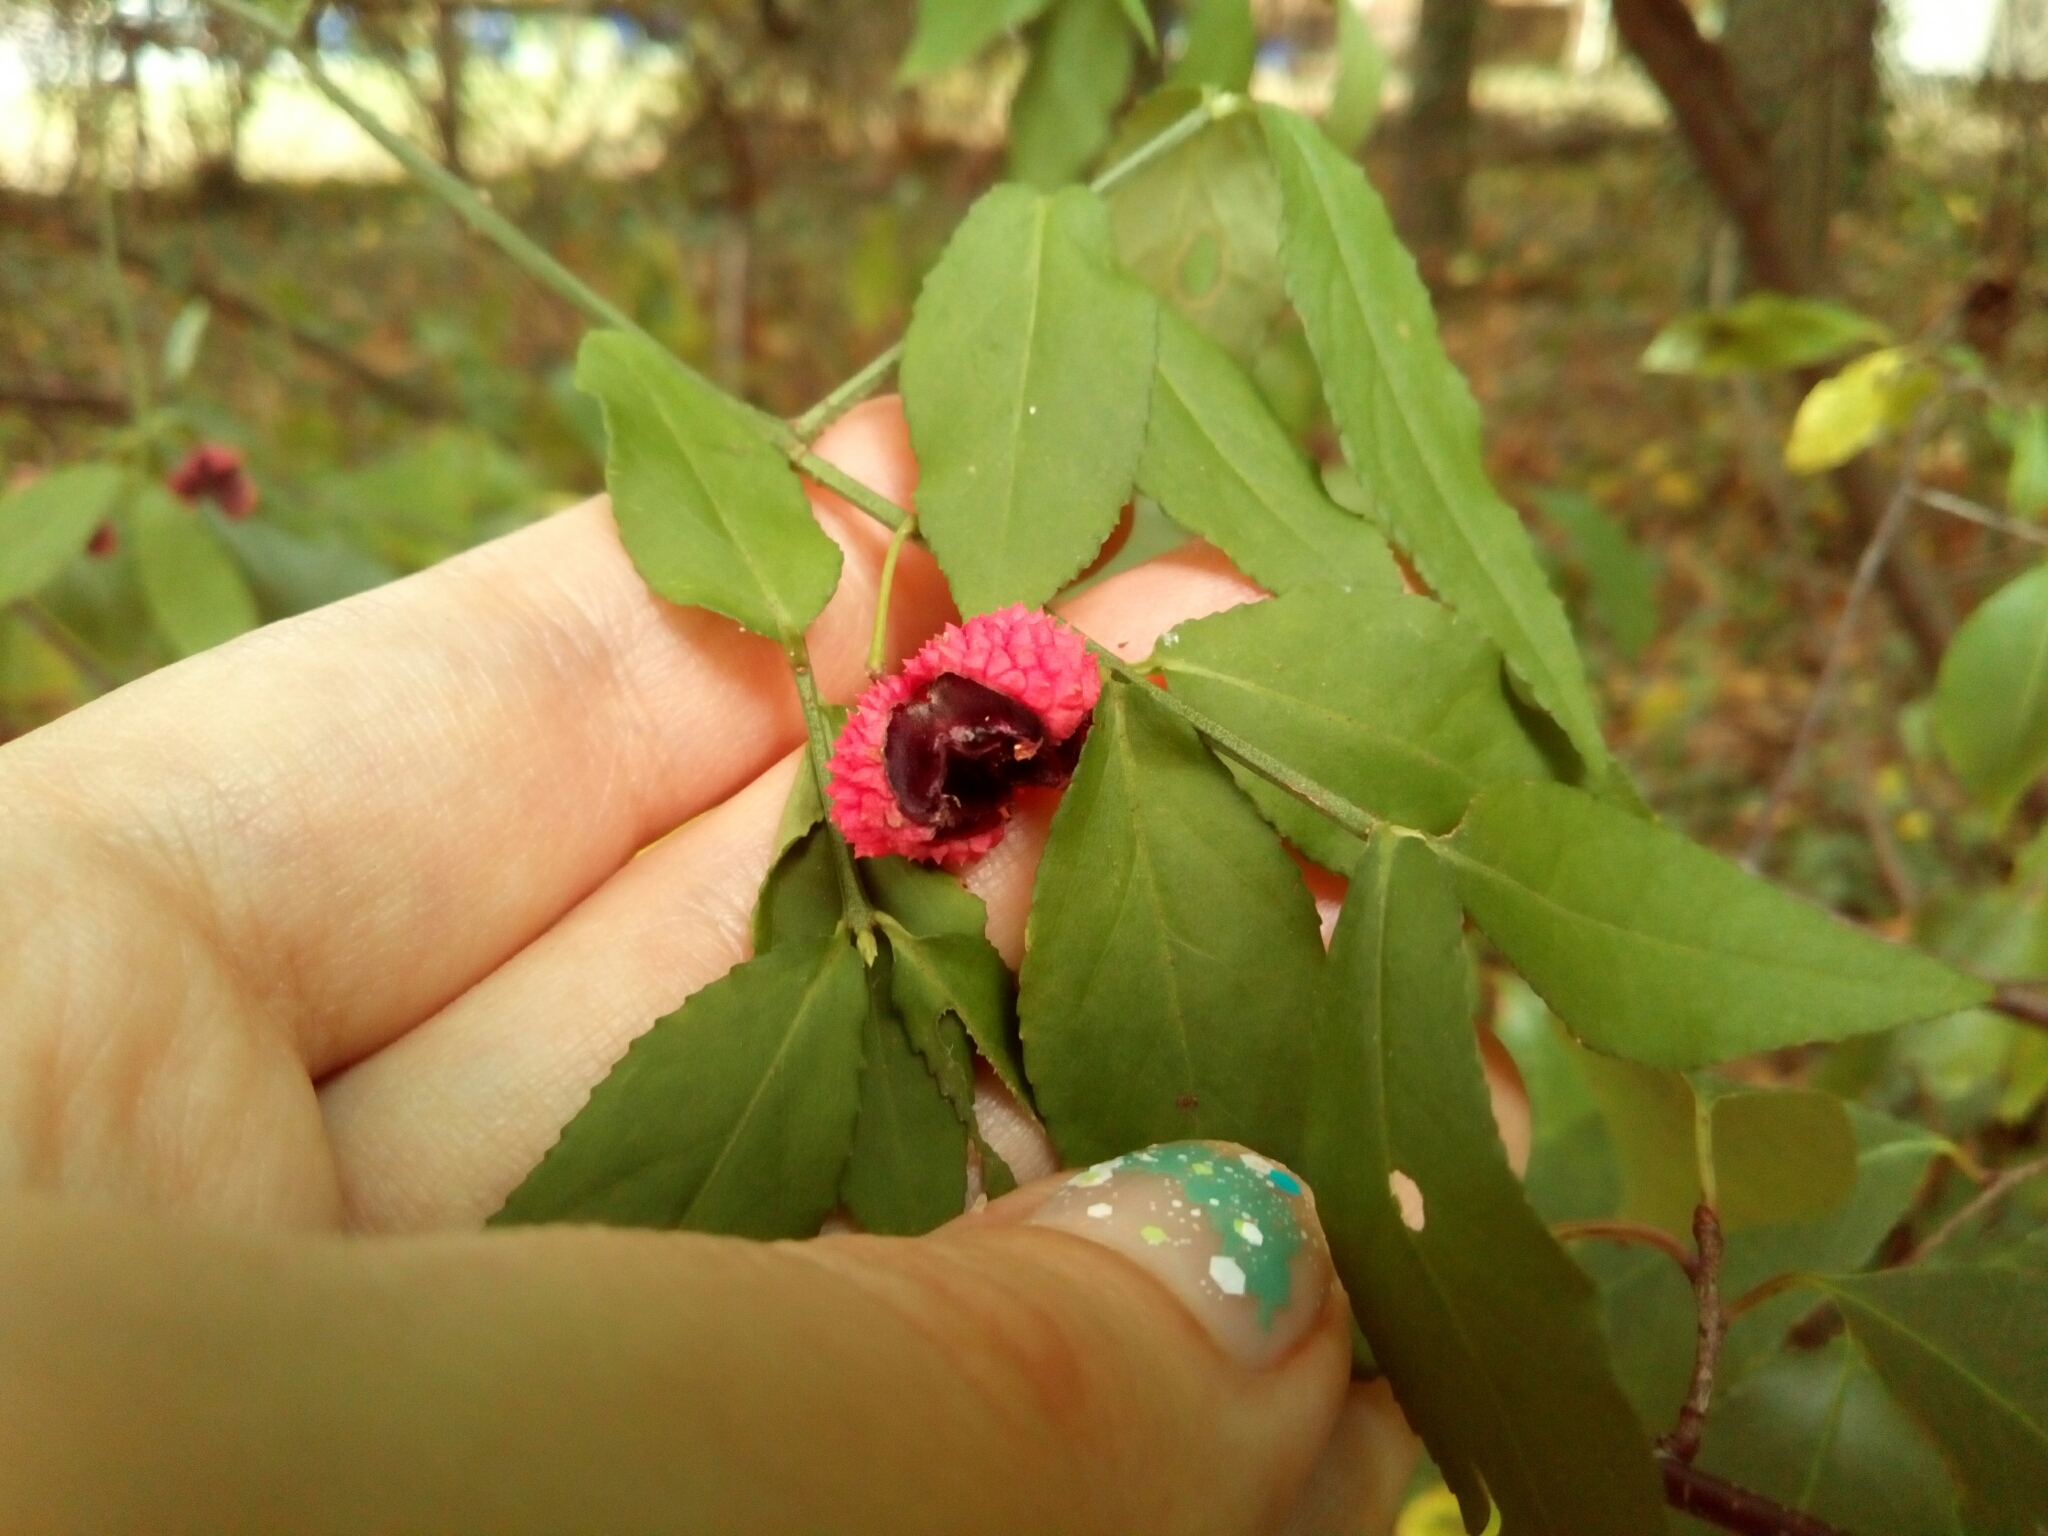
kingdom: Plantae
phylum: Tracheophyta
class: Magnoliopsida
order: Celastrales
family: Celastraceae
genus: Euonymus
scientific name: Euonymus americanus
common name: Bursting-heart
